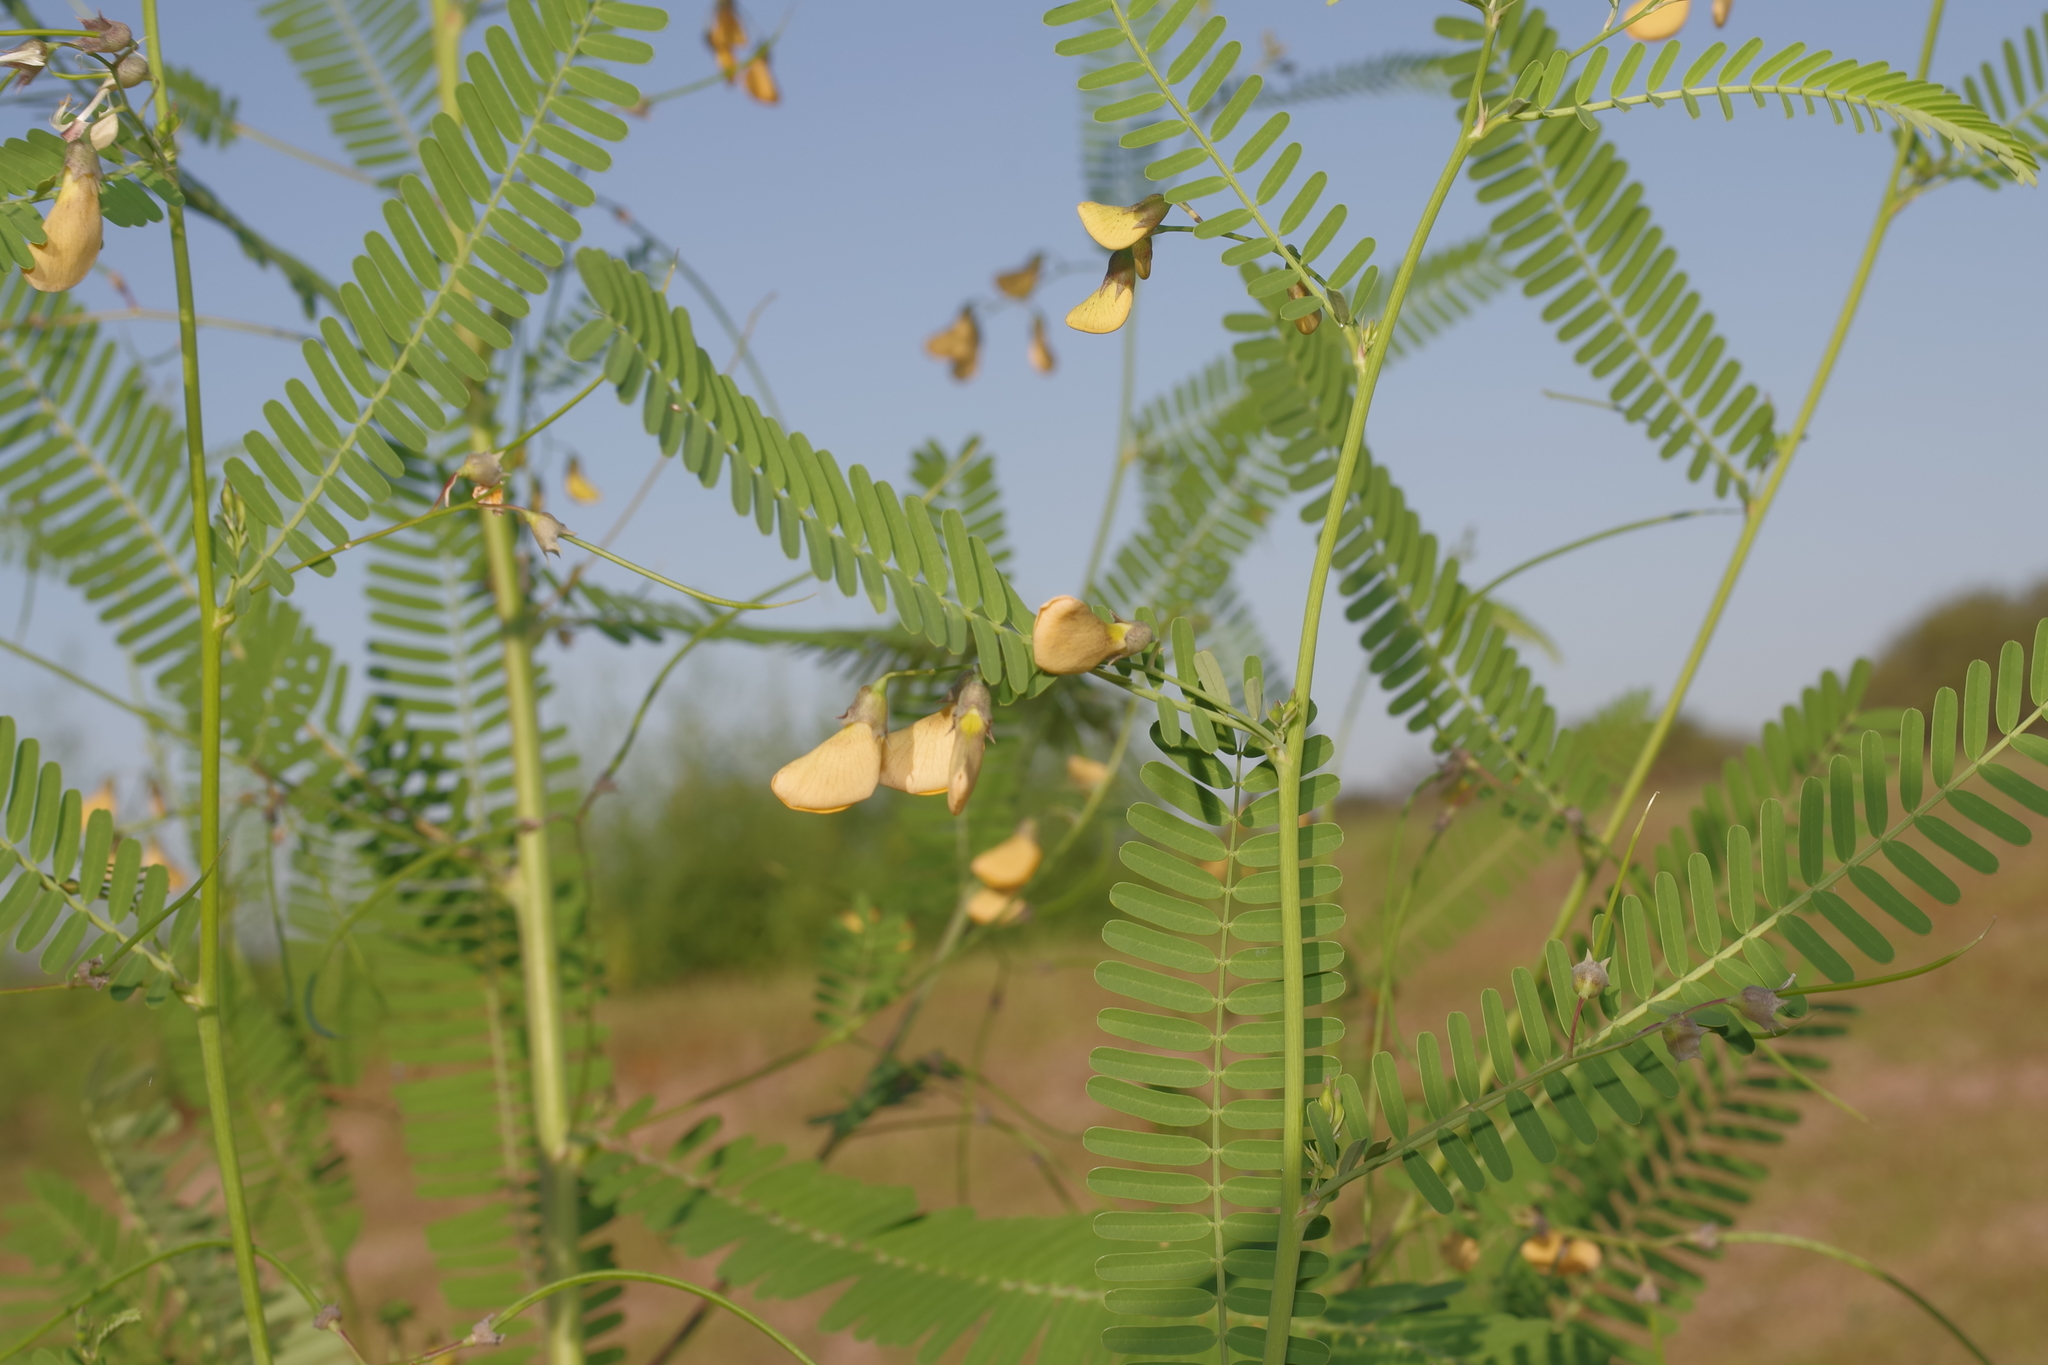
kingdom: Plantae
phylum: Tracheophyta
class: Magnoliopsida
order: Fabales
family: Fabaceae
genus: Sesbania
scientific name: Sesbania herbacea
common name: Bigpod sesbania
